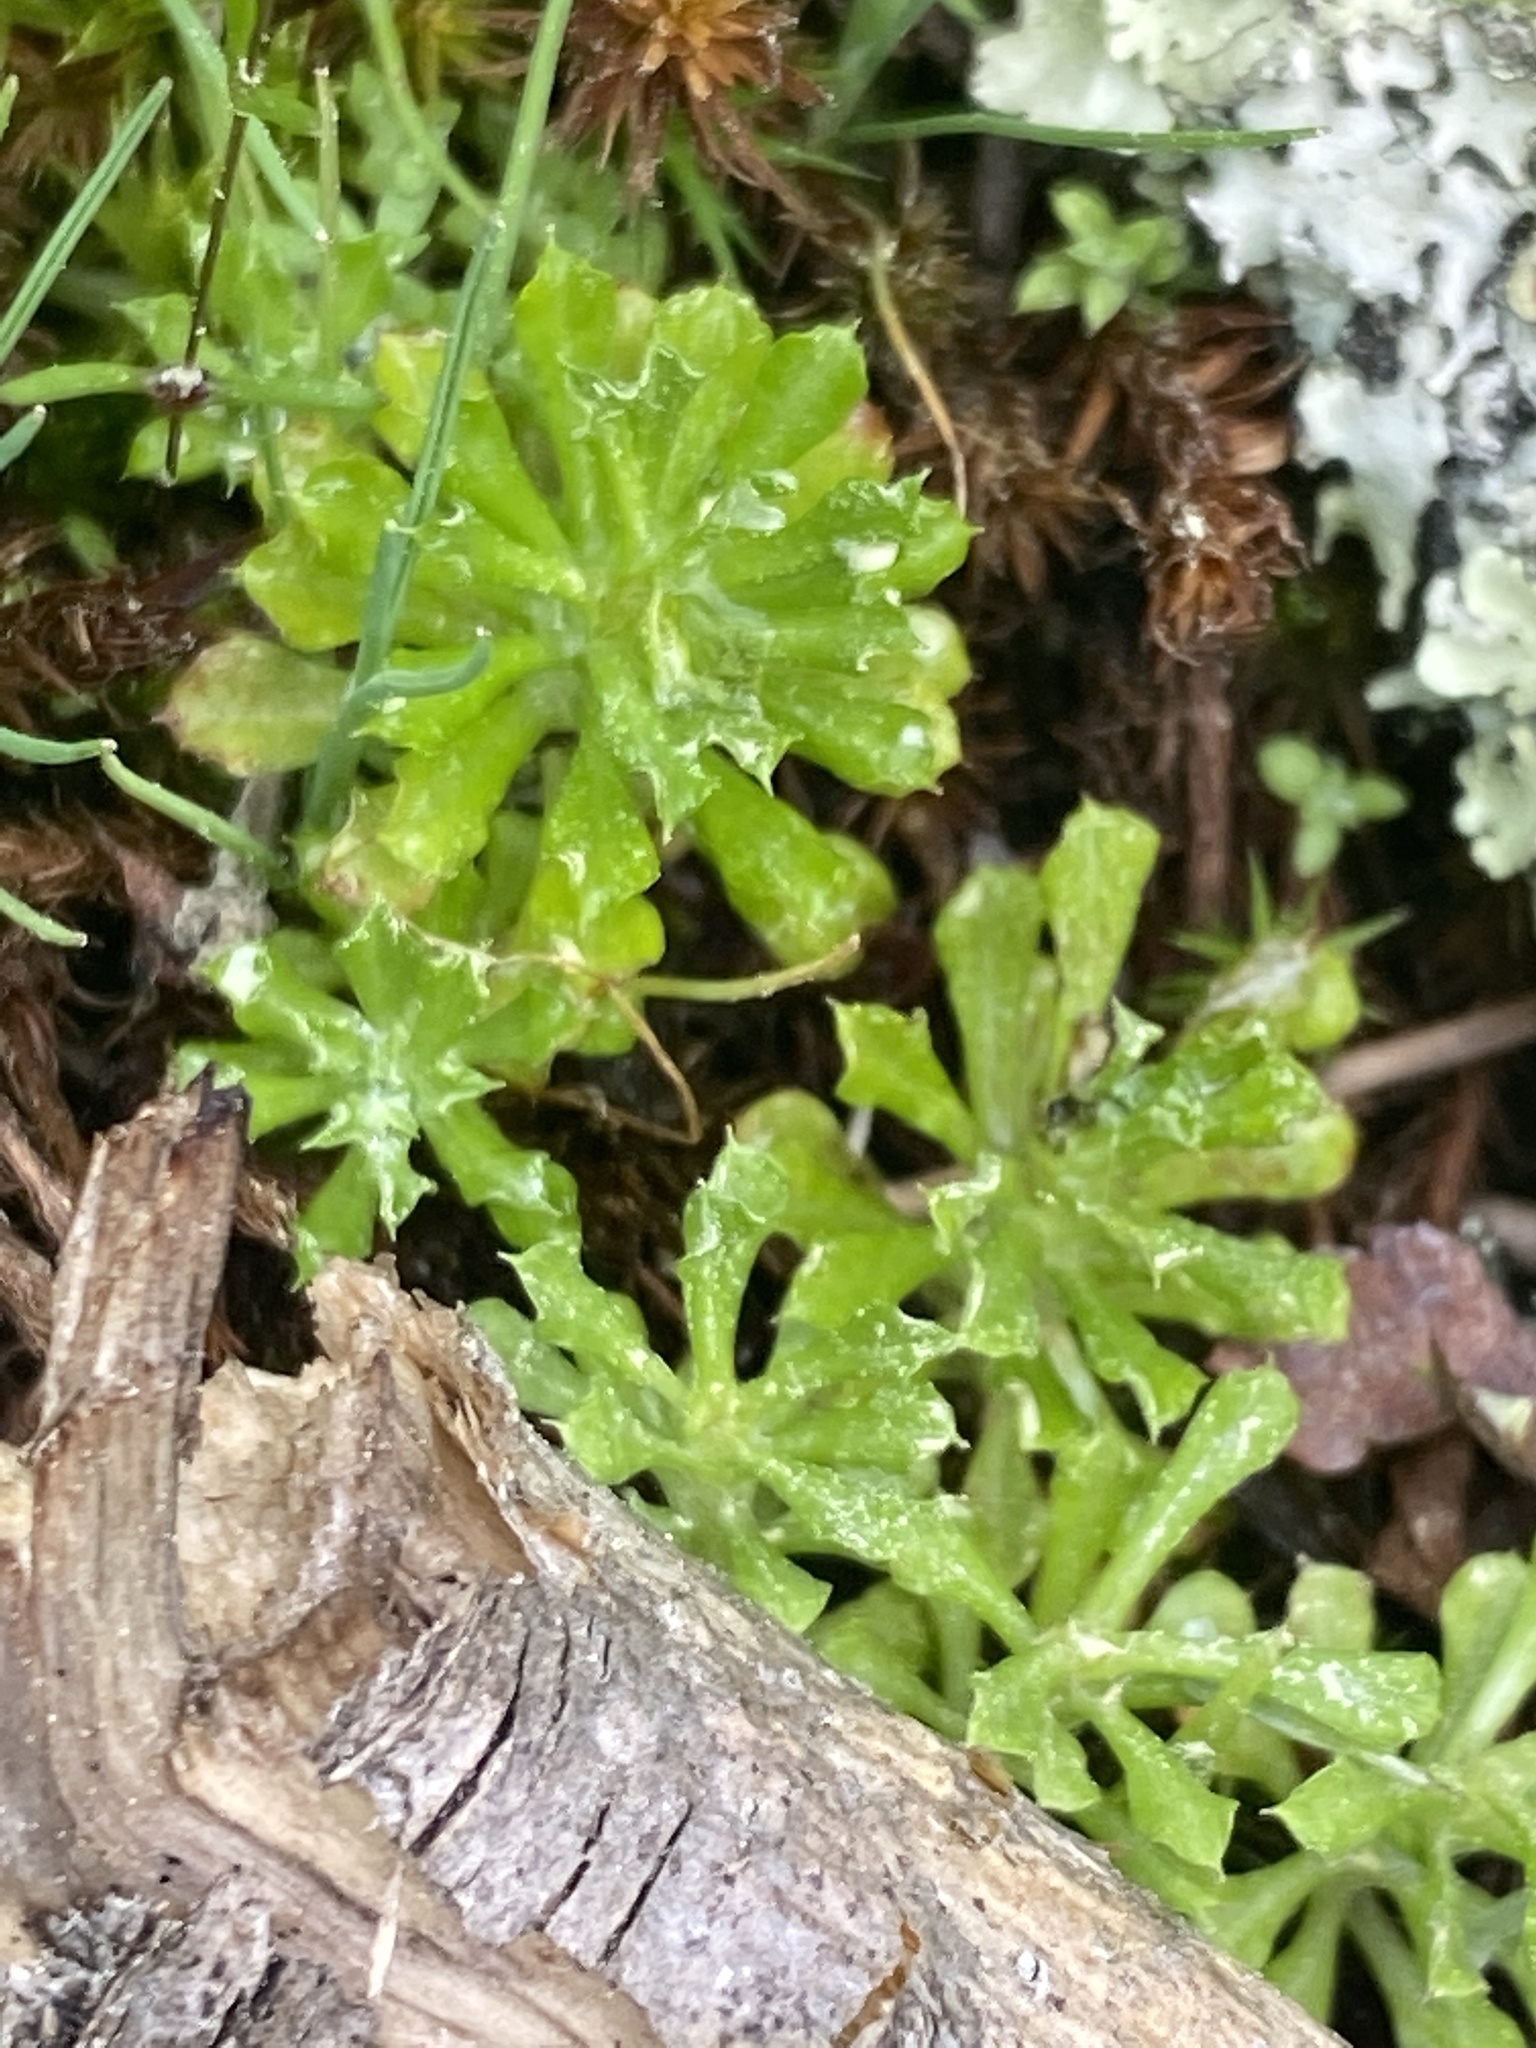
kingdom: Plantae
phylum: Tracheophyta
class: Magnoliopsida
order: Asterales
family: Asteraceae
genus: Facelis
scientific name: Facelis retusa
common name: Annual trampweed
